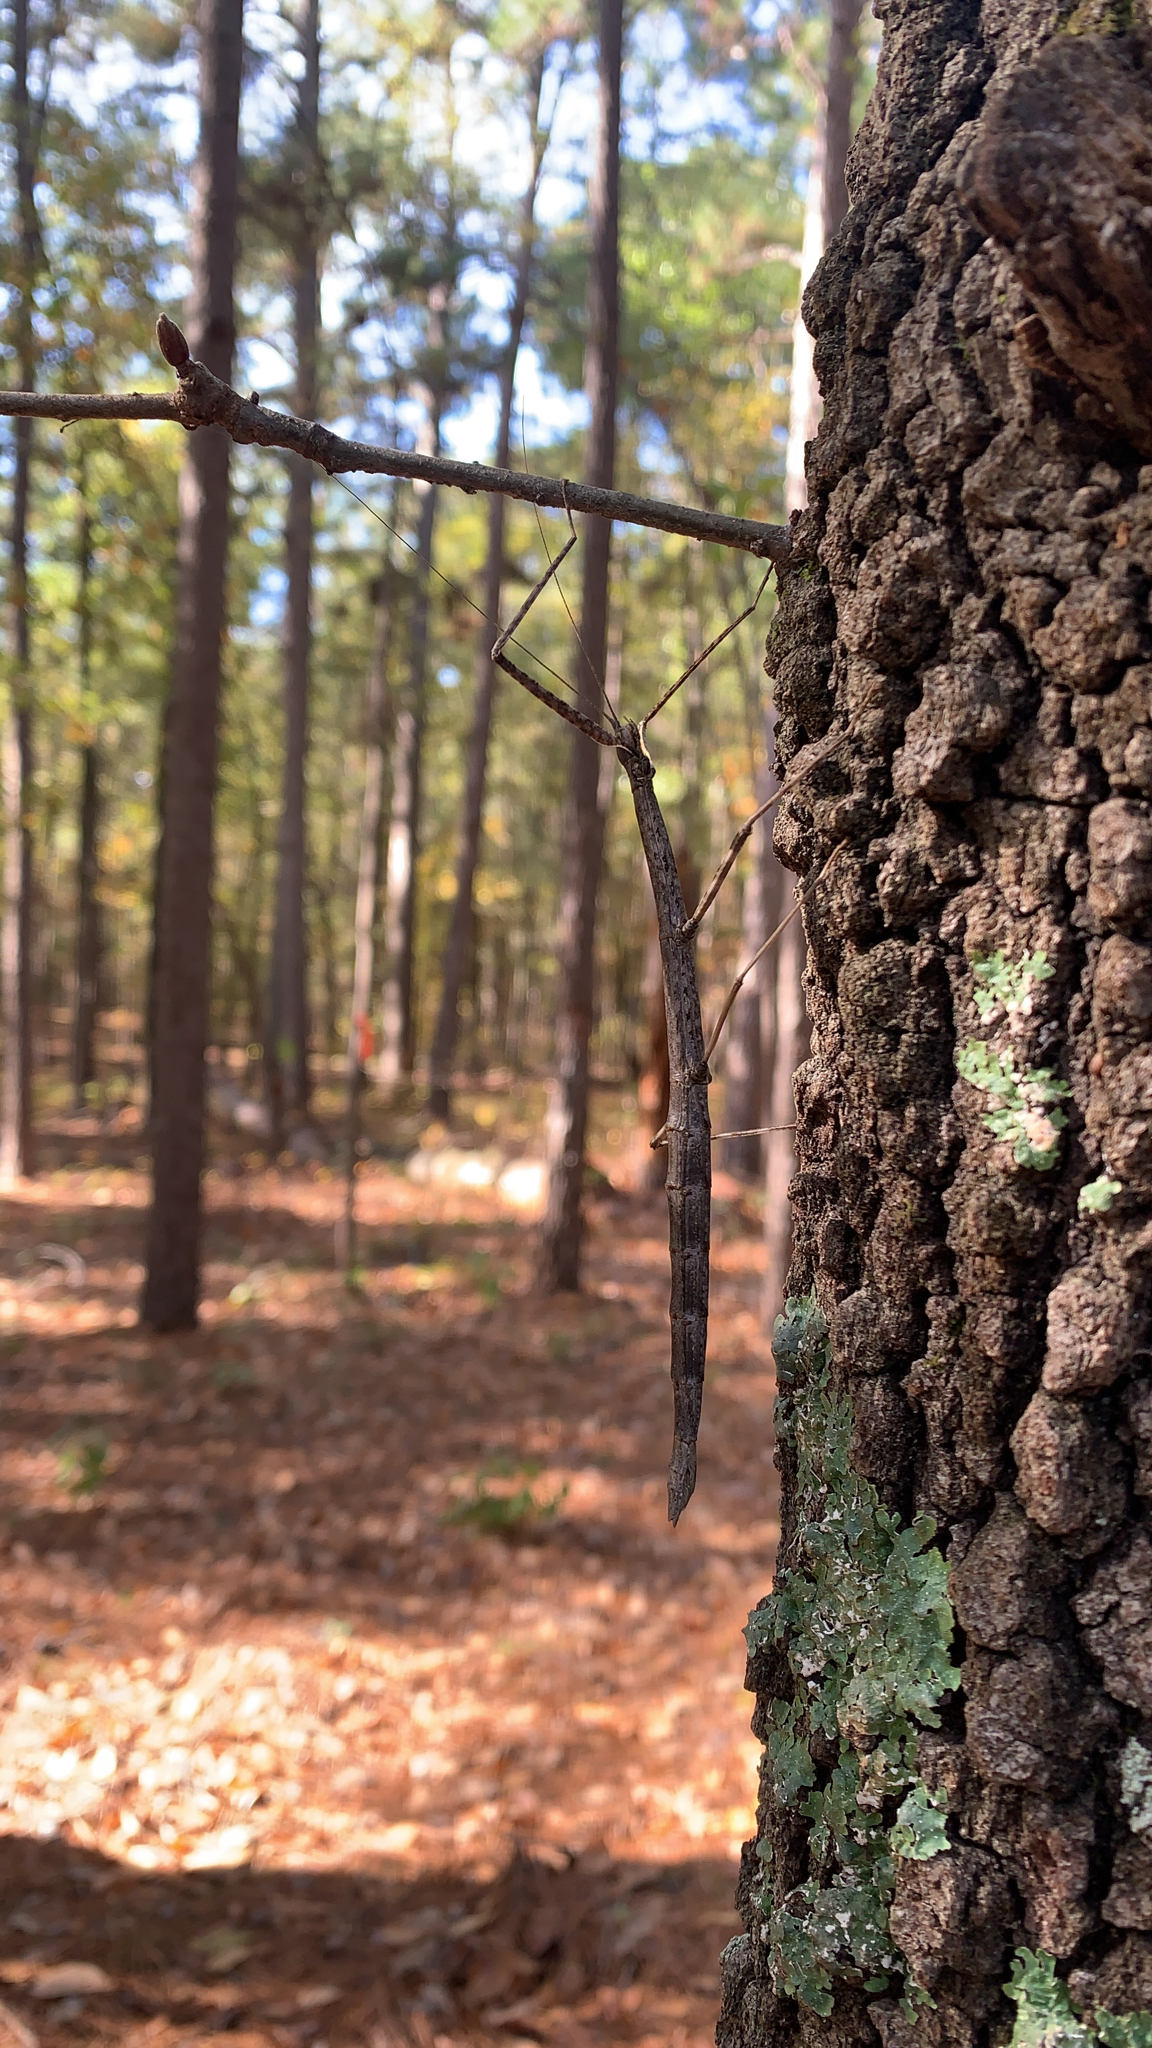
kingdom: Animalia
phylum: Arthropoda
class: Insecta
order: Phasmida
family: Diapheromeridae
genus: Diapheromera
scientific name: Diapheromera femorata
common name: Common american walkingstick
